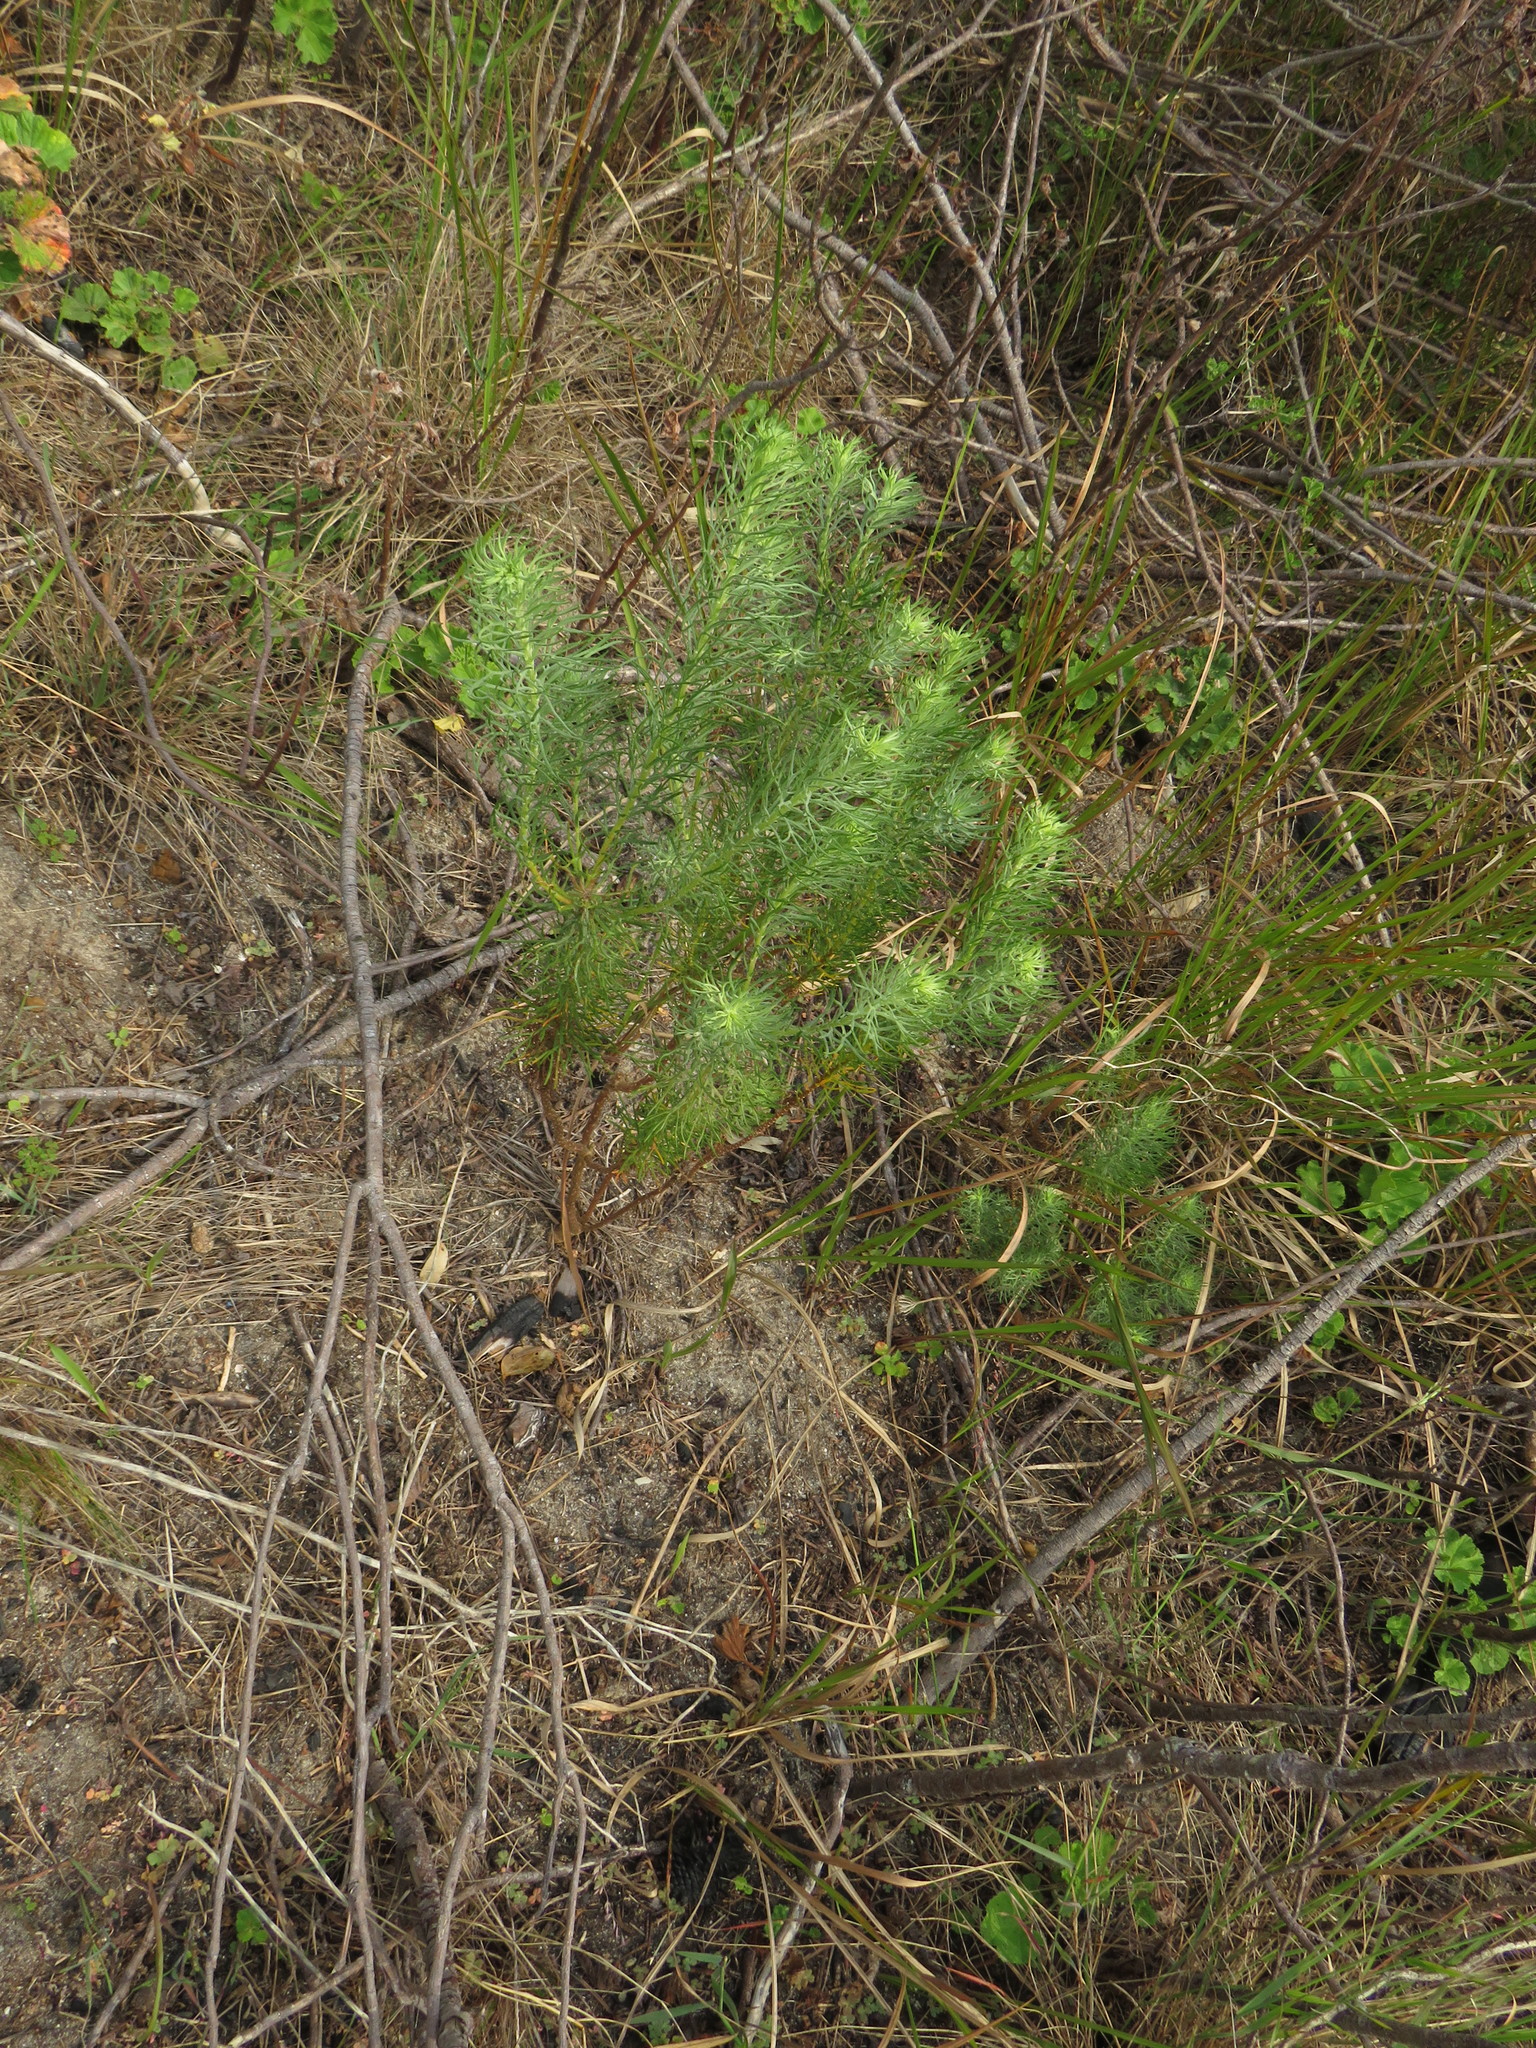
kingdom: Plantae
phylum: Tracheophyta
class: Magnoliopsida
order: Asterales
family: Asteraceae
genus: Athanasia
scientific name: Athanasia crithmifolia
